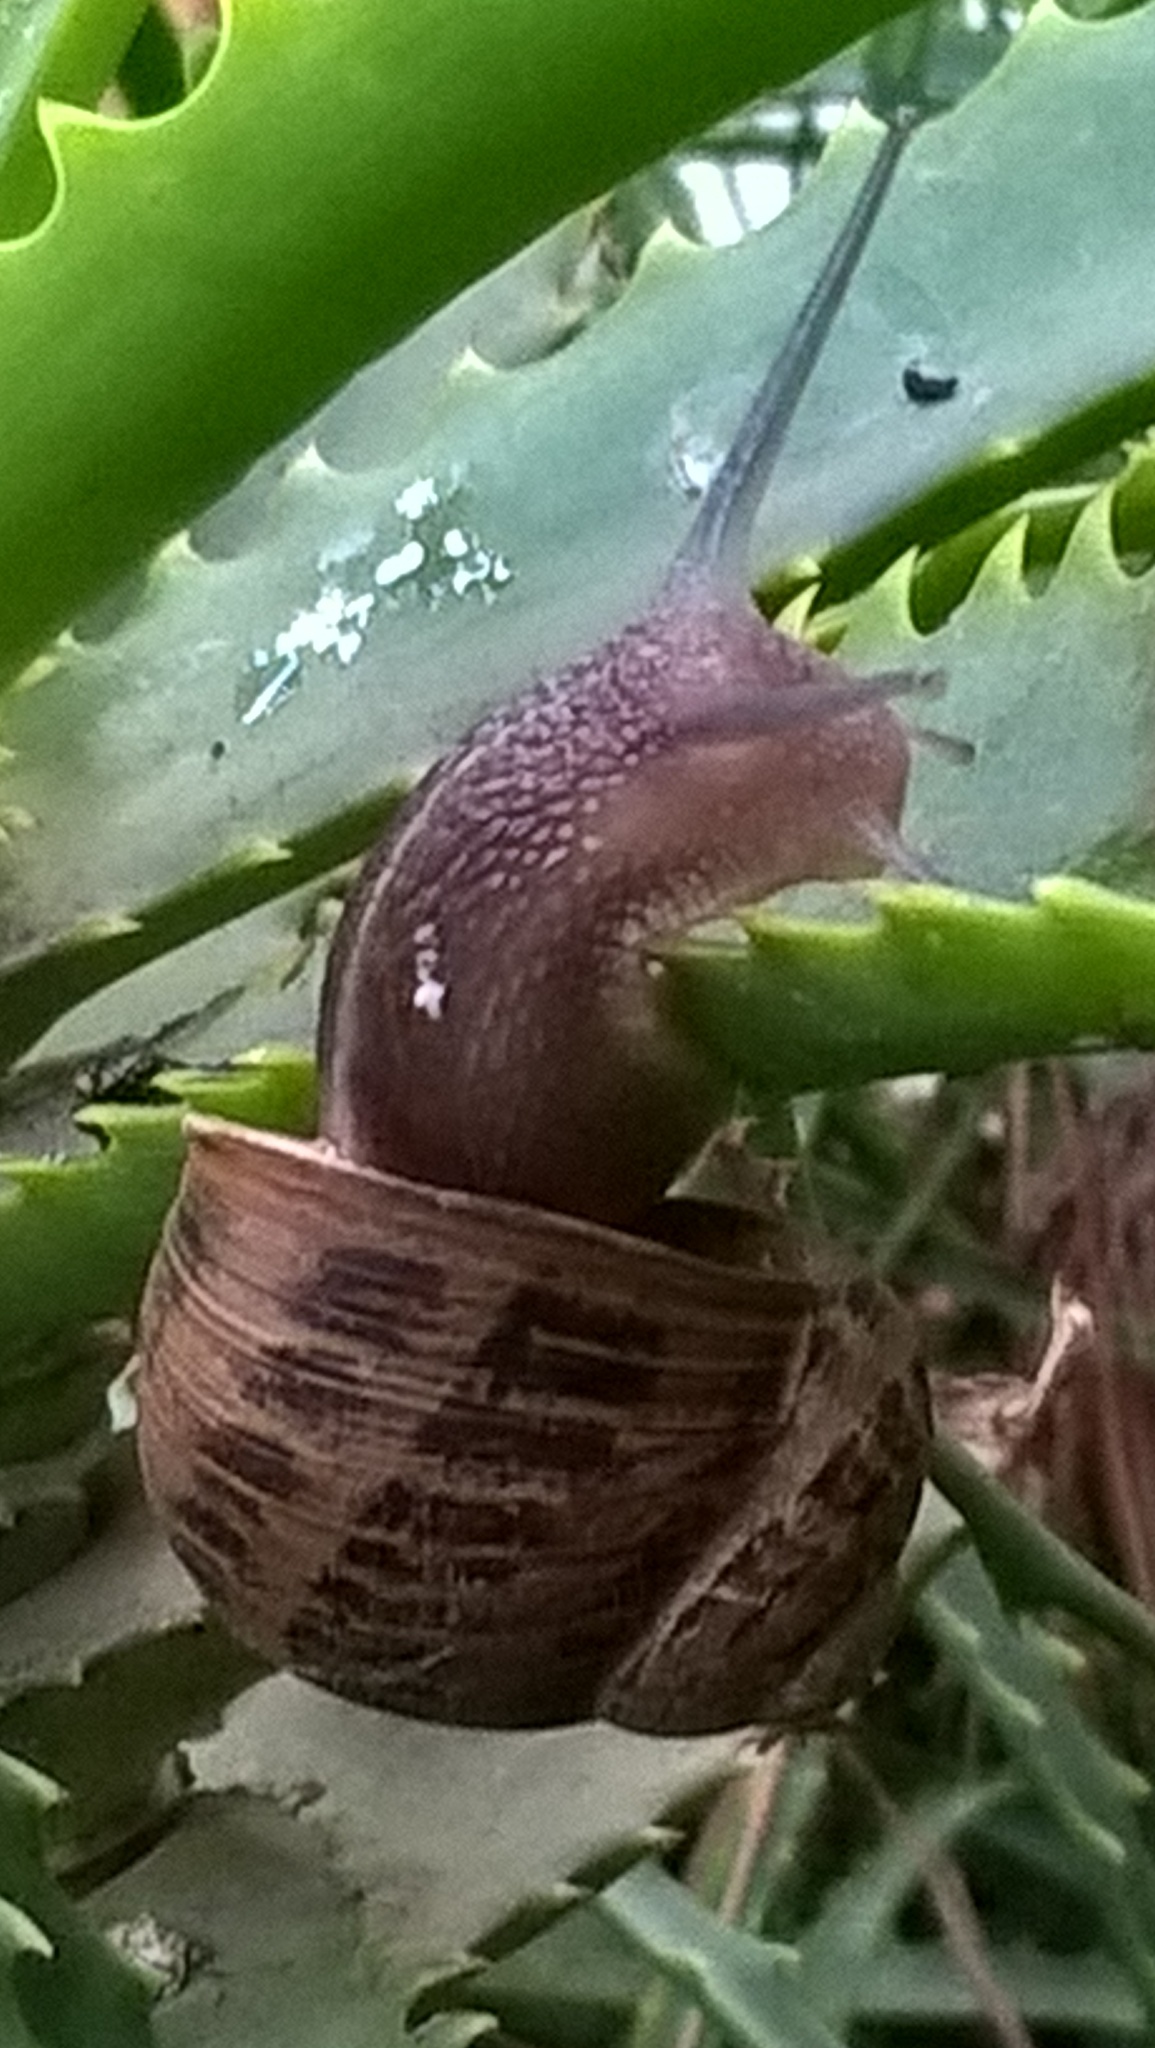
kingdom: Animalia
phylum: Mollusca
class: Gastropoda
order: Stylommatophora
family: Helicidae
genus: Cornu
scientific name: Cornu aspersum
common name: Brown garden snail
